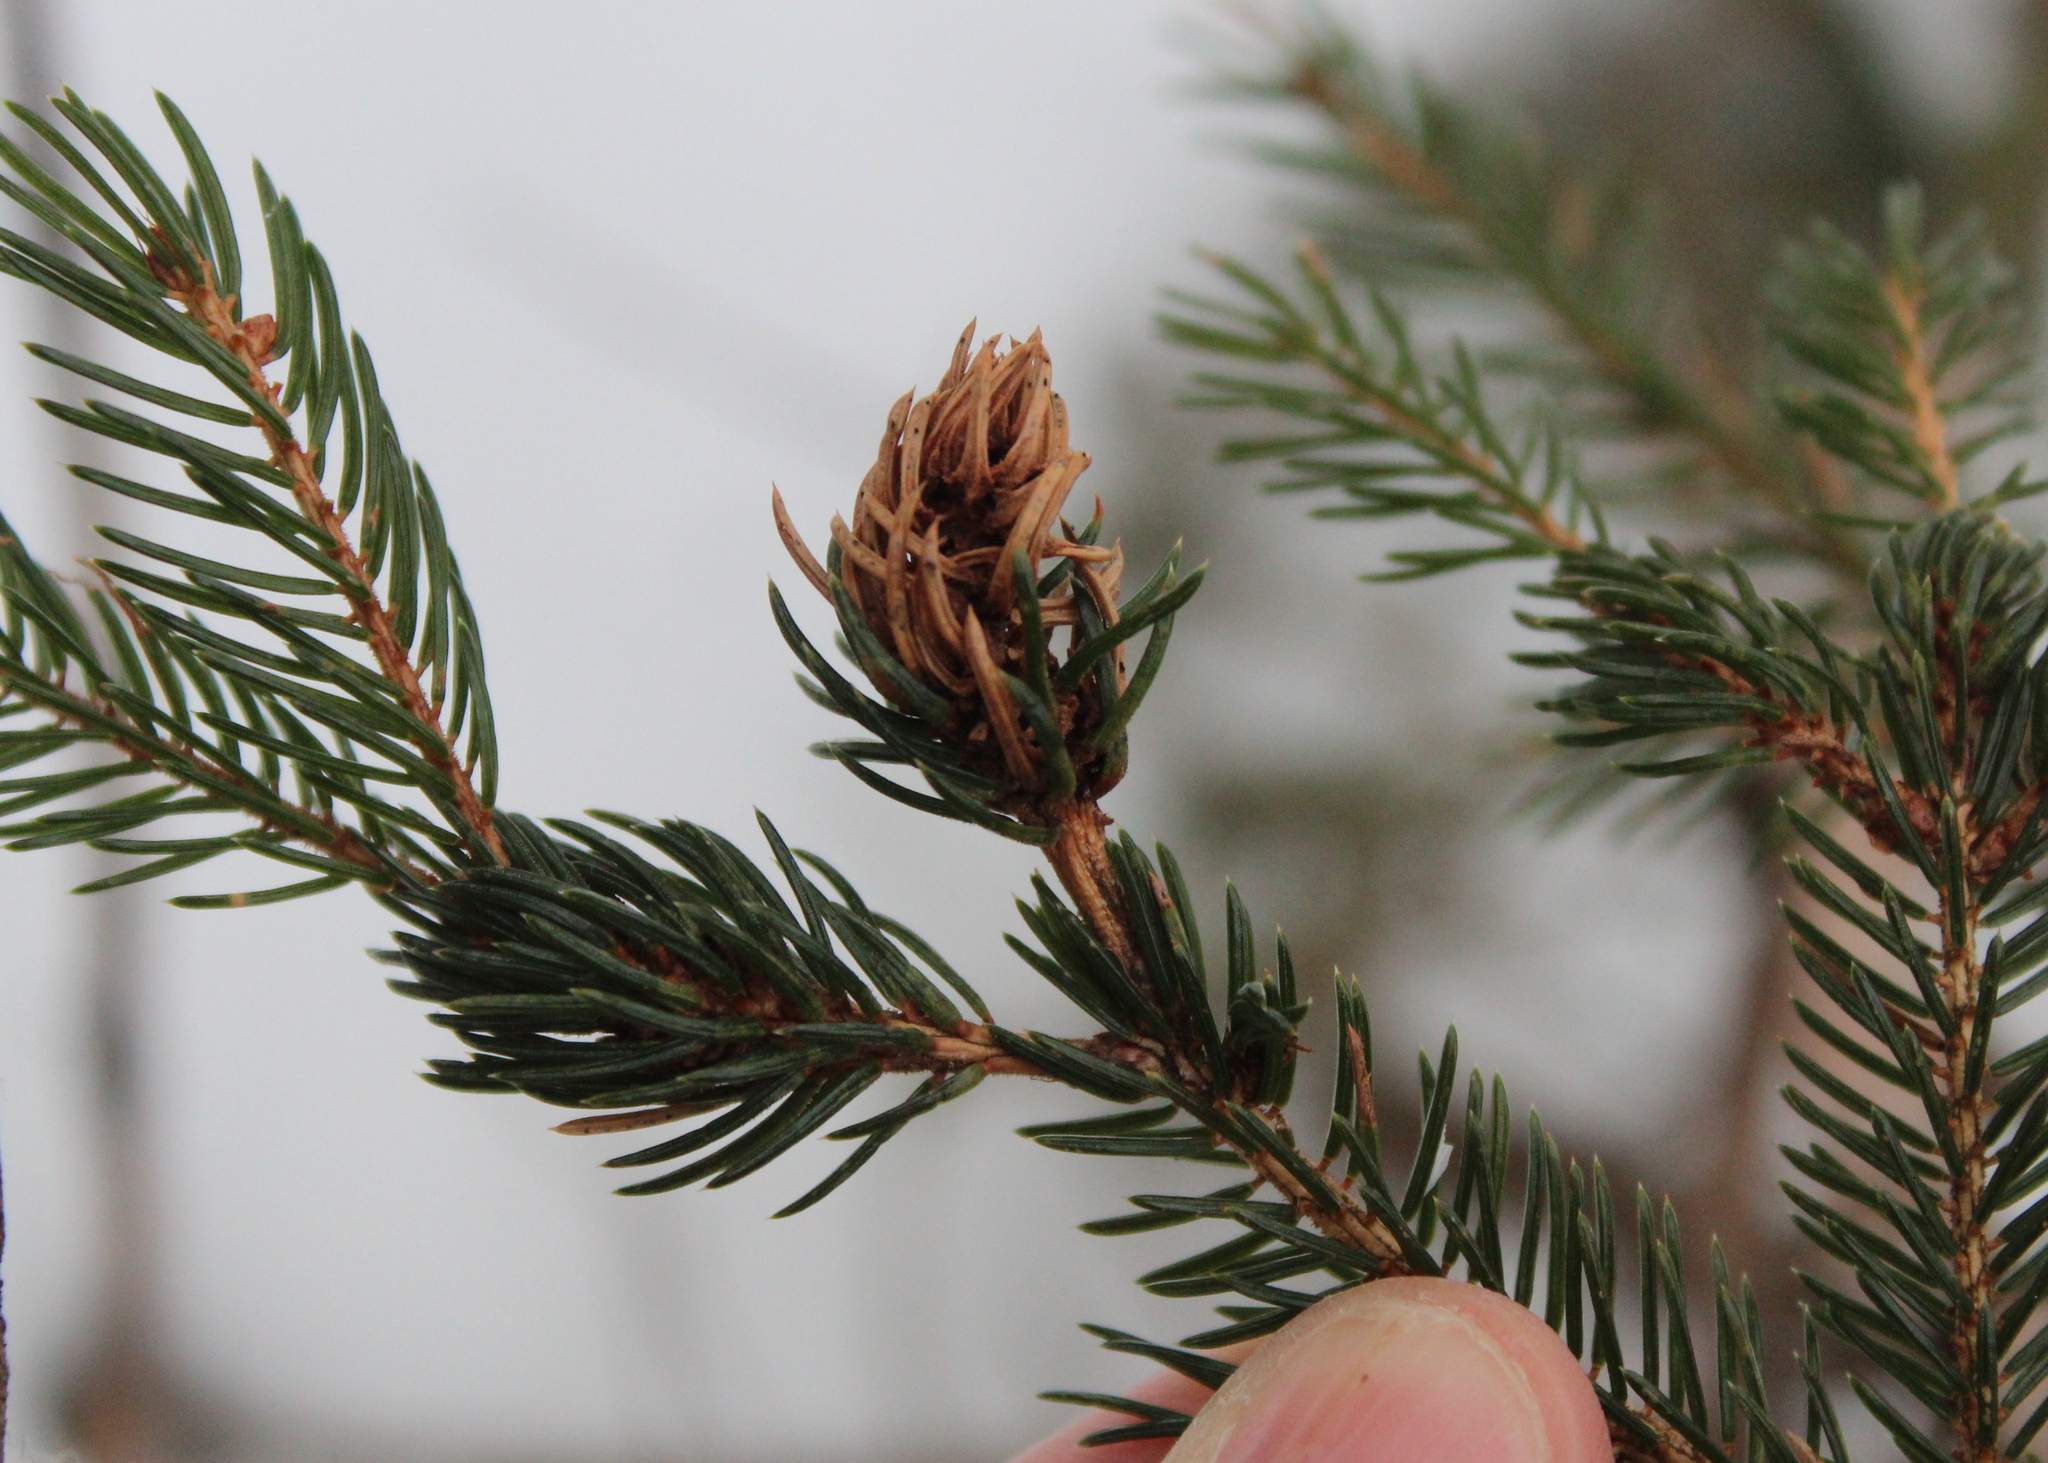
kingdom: Animalia
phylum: Arthropoda
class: Insecta
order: Hemiptera
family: Adelgidae
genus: Adelges
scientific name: Adelges abietis
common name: Eastern spruce gall adelgid
